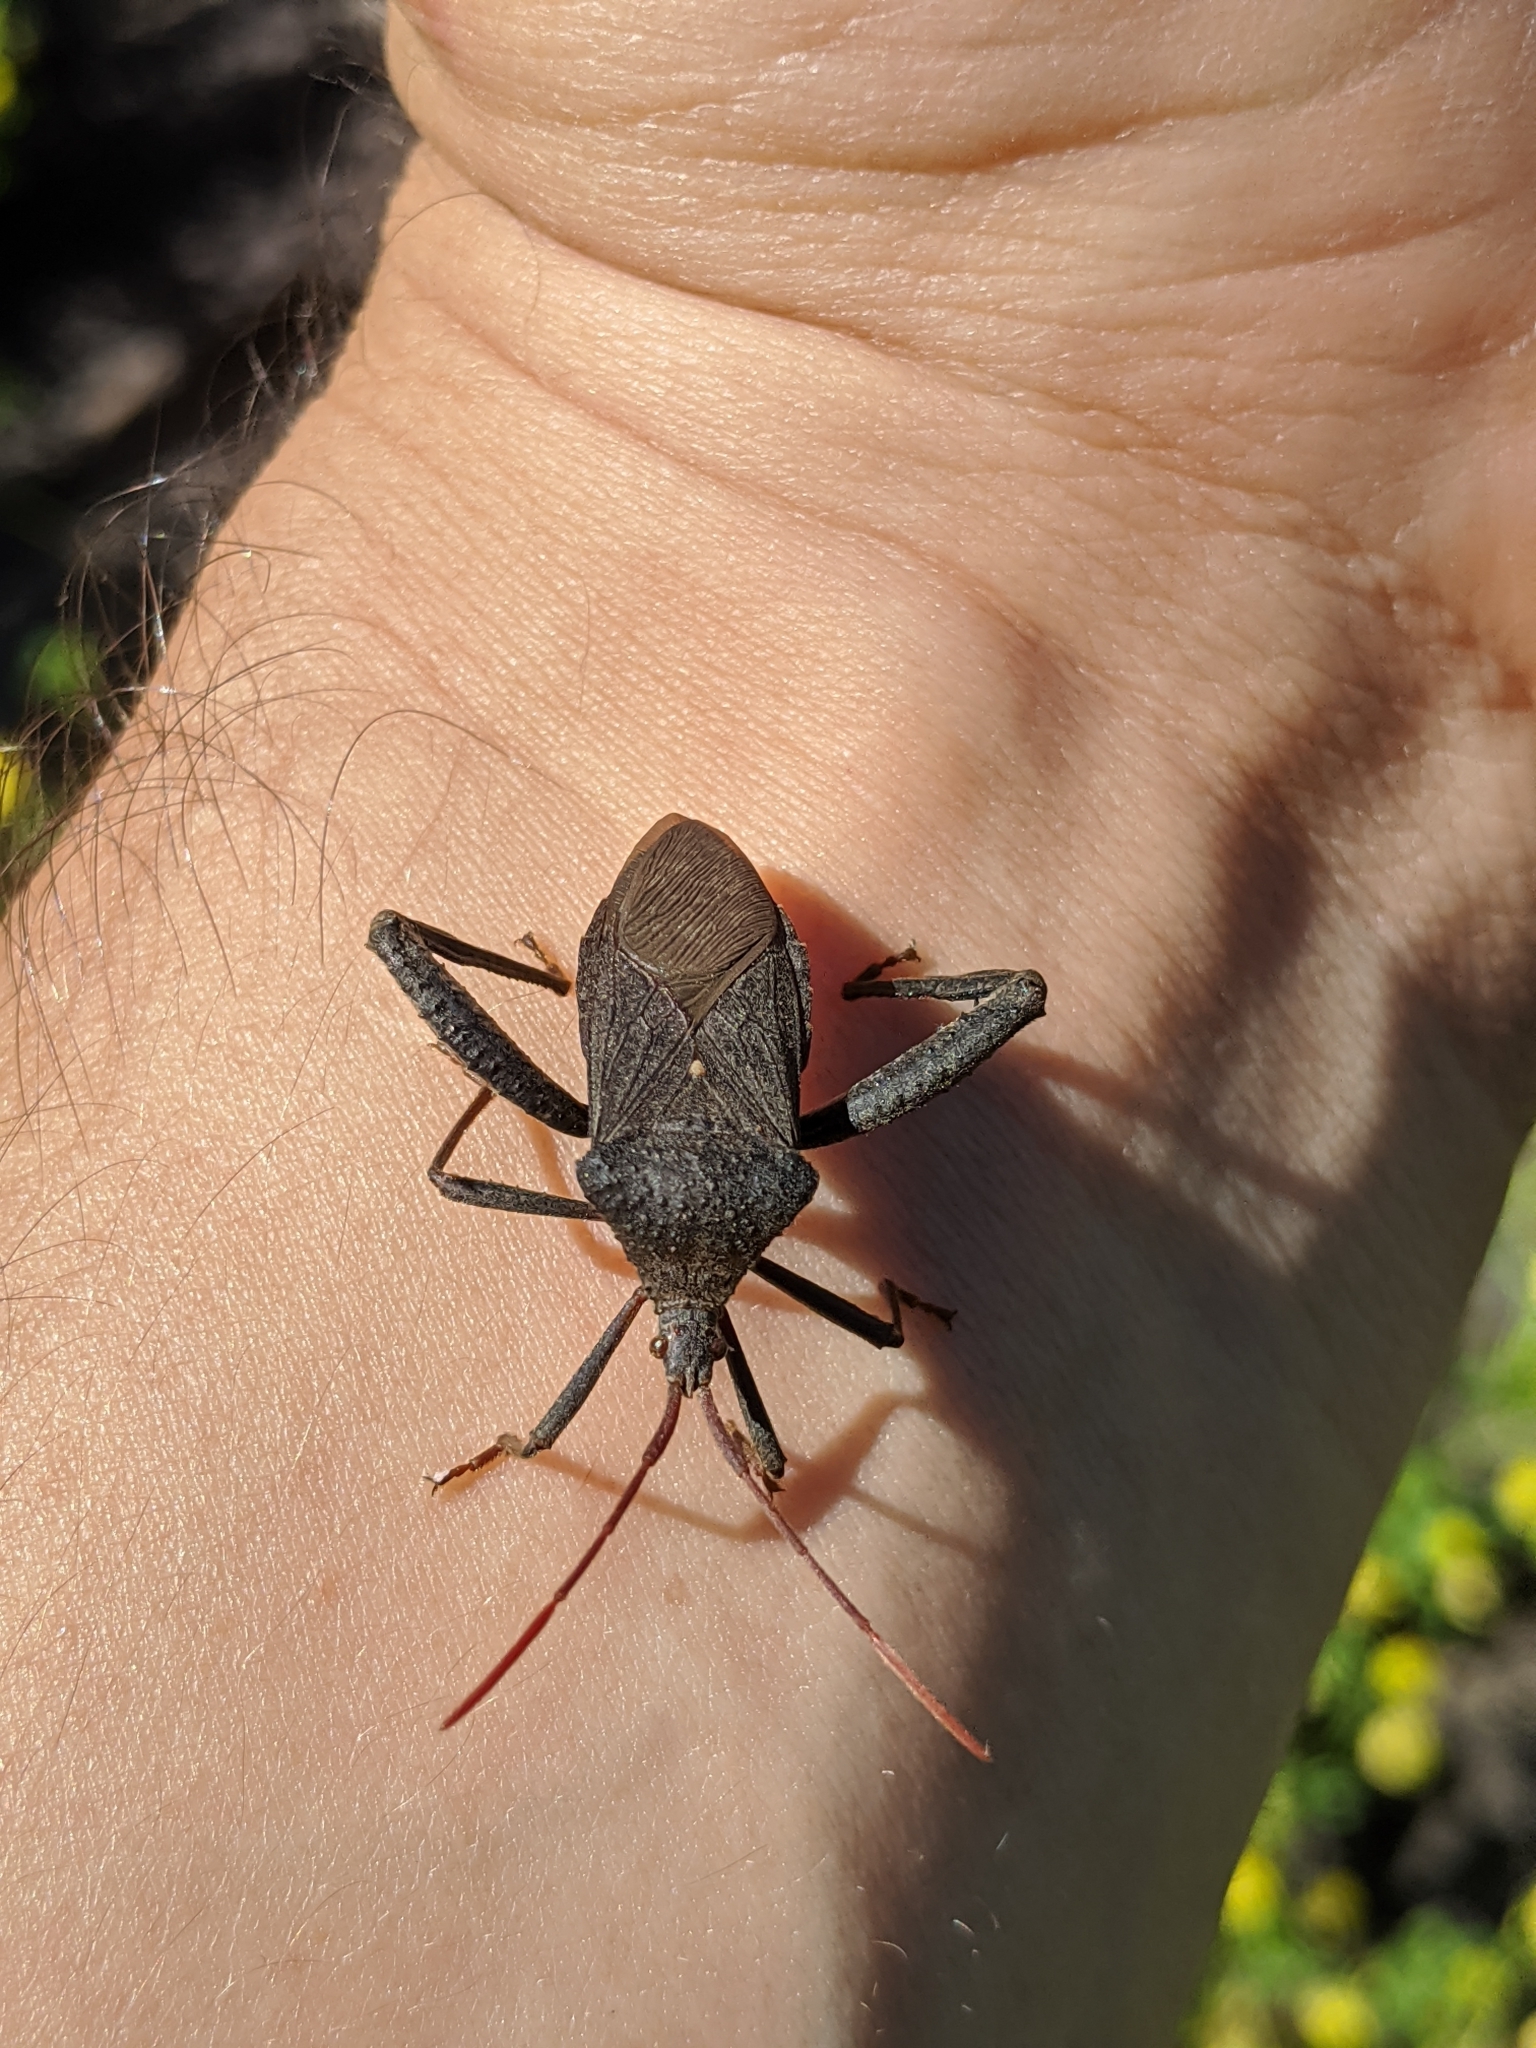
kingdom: Animalia
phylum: Arthropoda
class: Insecta
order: Hemiptera
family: Coreidae
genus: Acanthocephala
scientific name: Acanthocephala femorata
